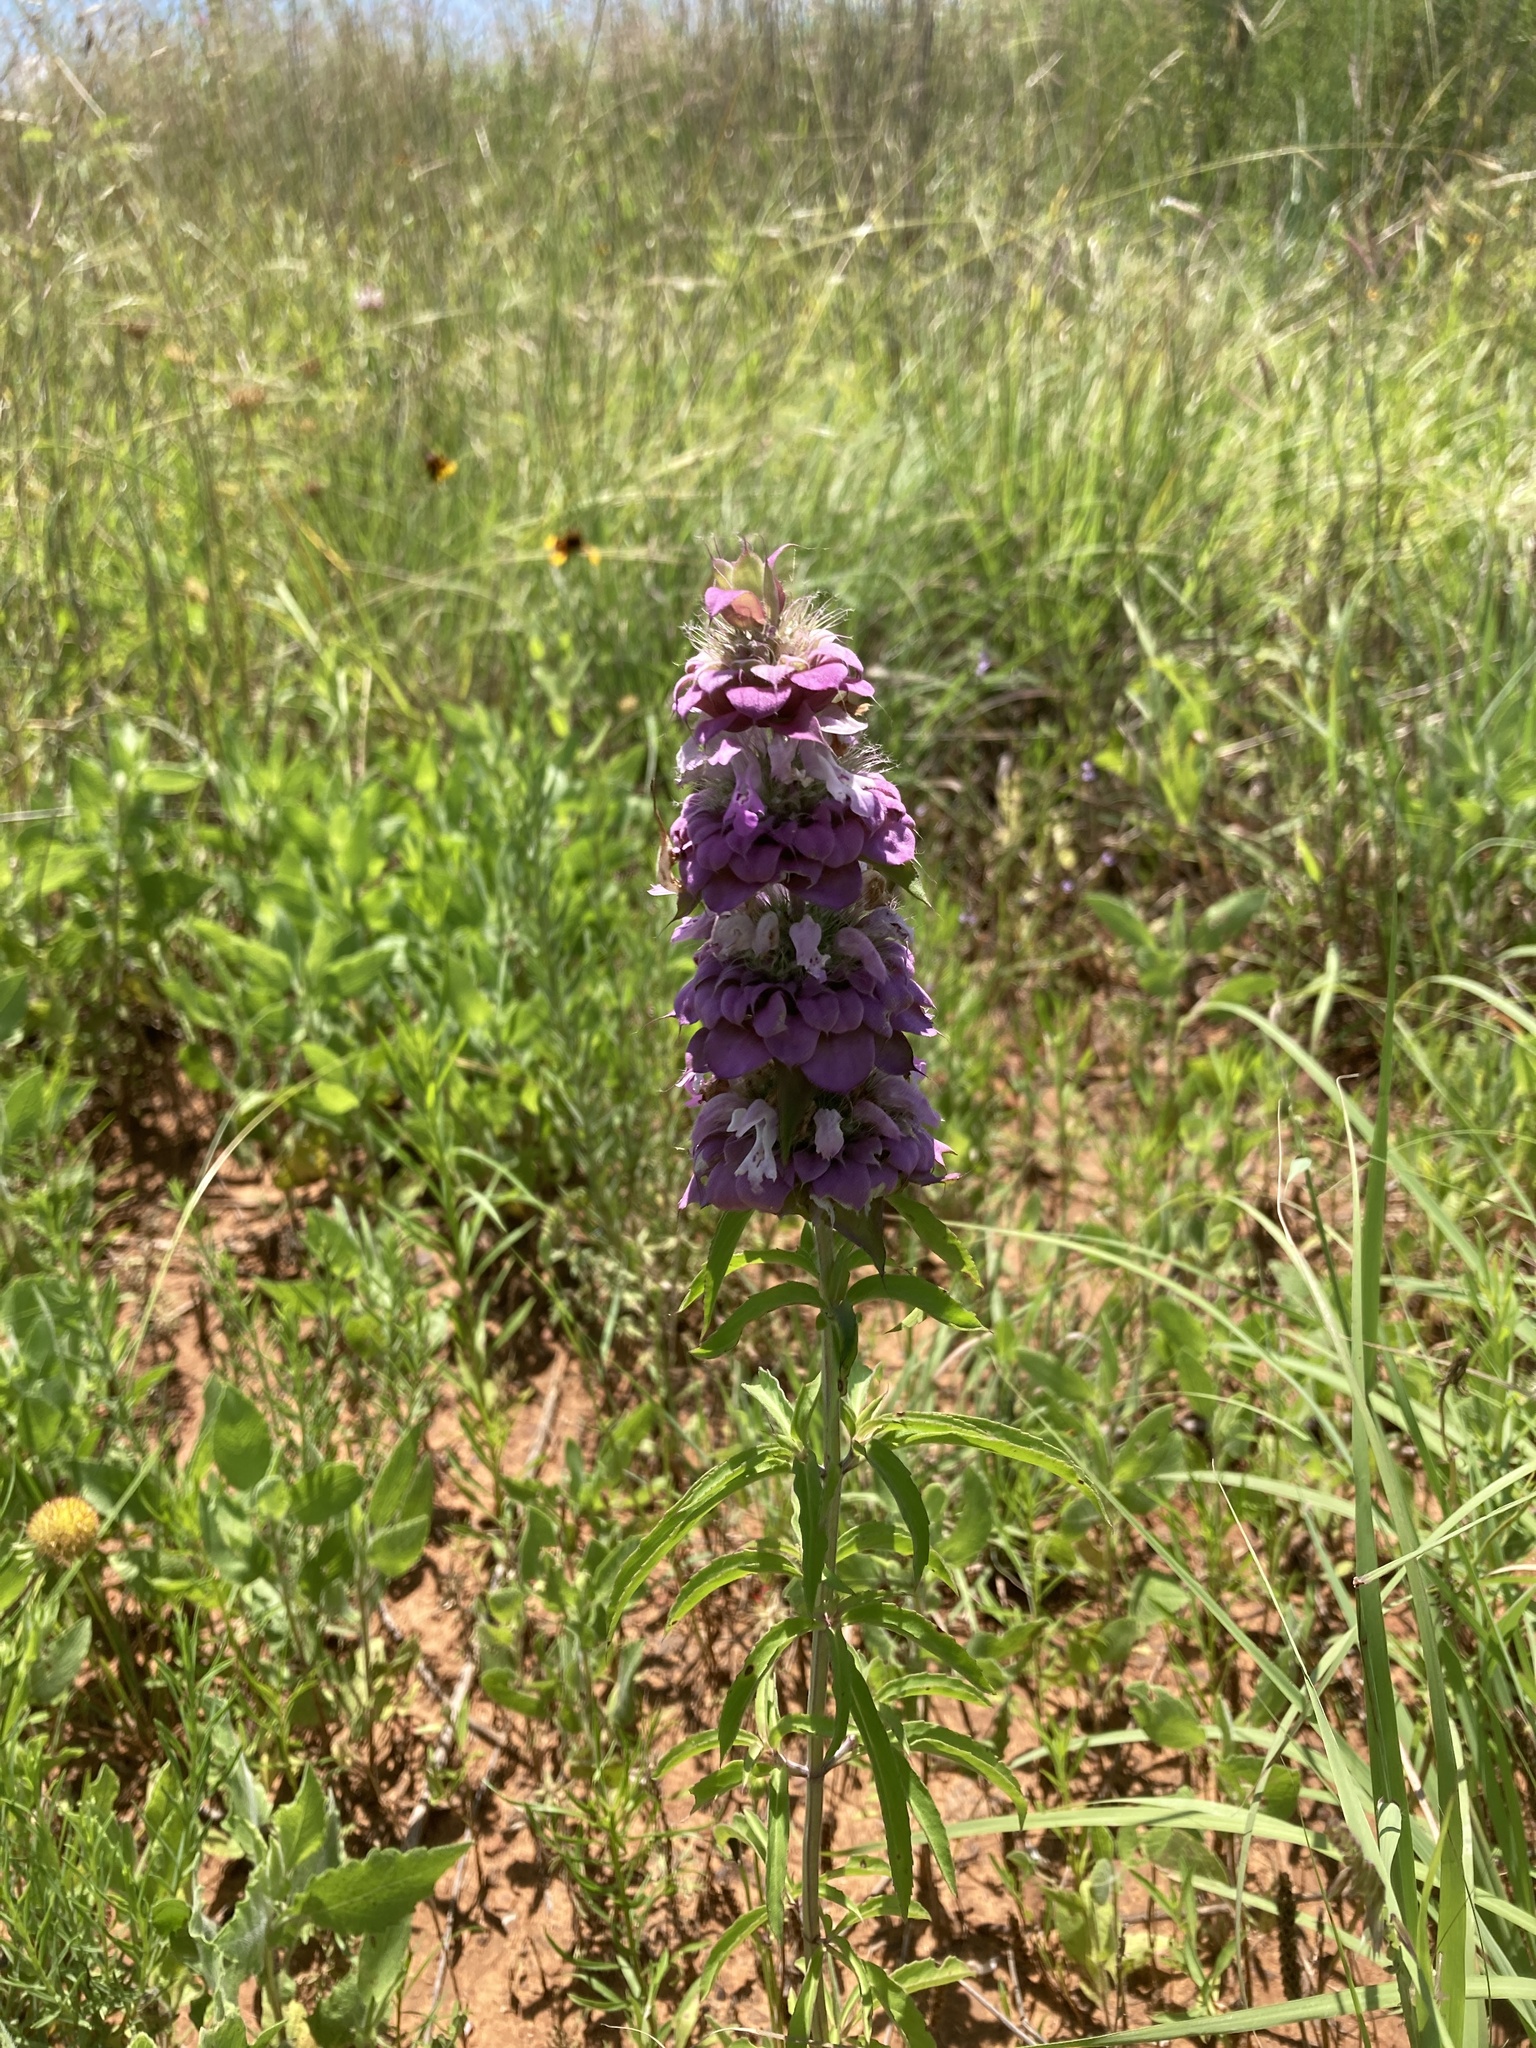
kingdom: Plantae
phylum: Tracheophyta
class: Magnoliopsida
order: Lamiales
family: Lamiaceae
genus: Monarda
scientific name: Monarda citriodora
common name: Lemon beebalm
